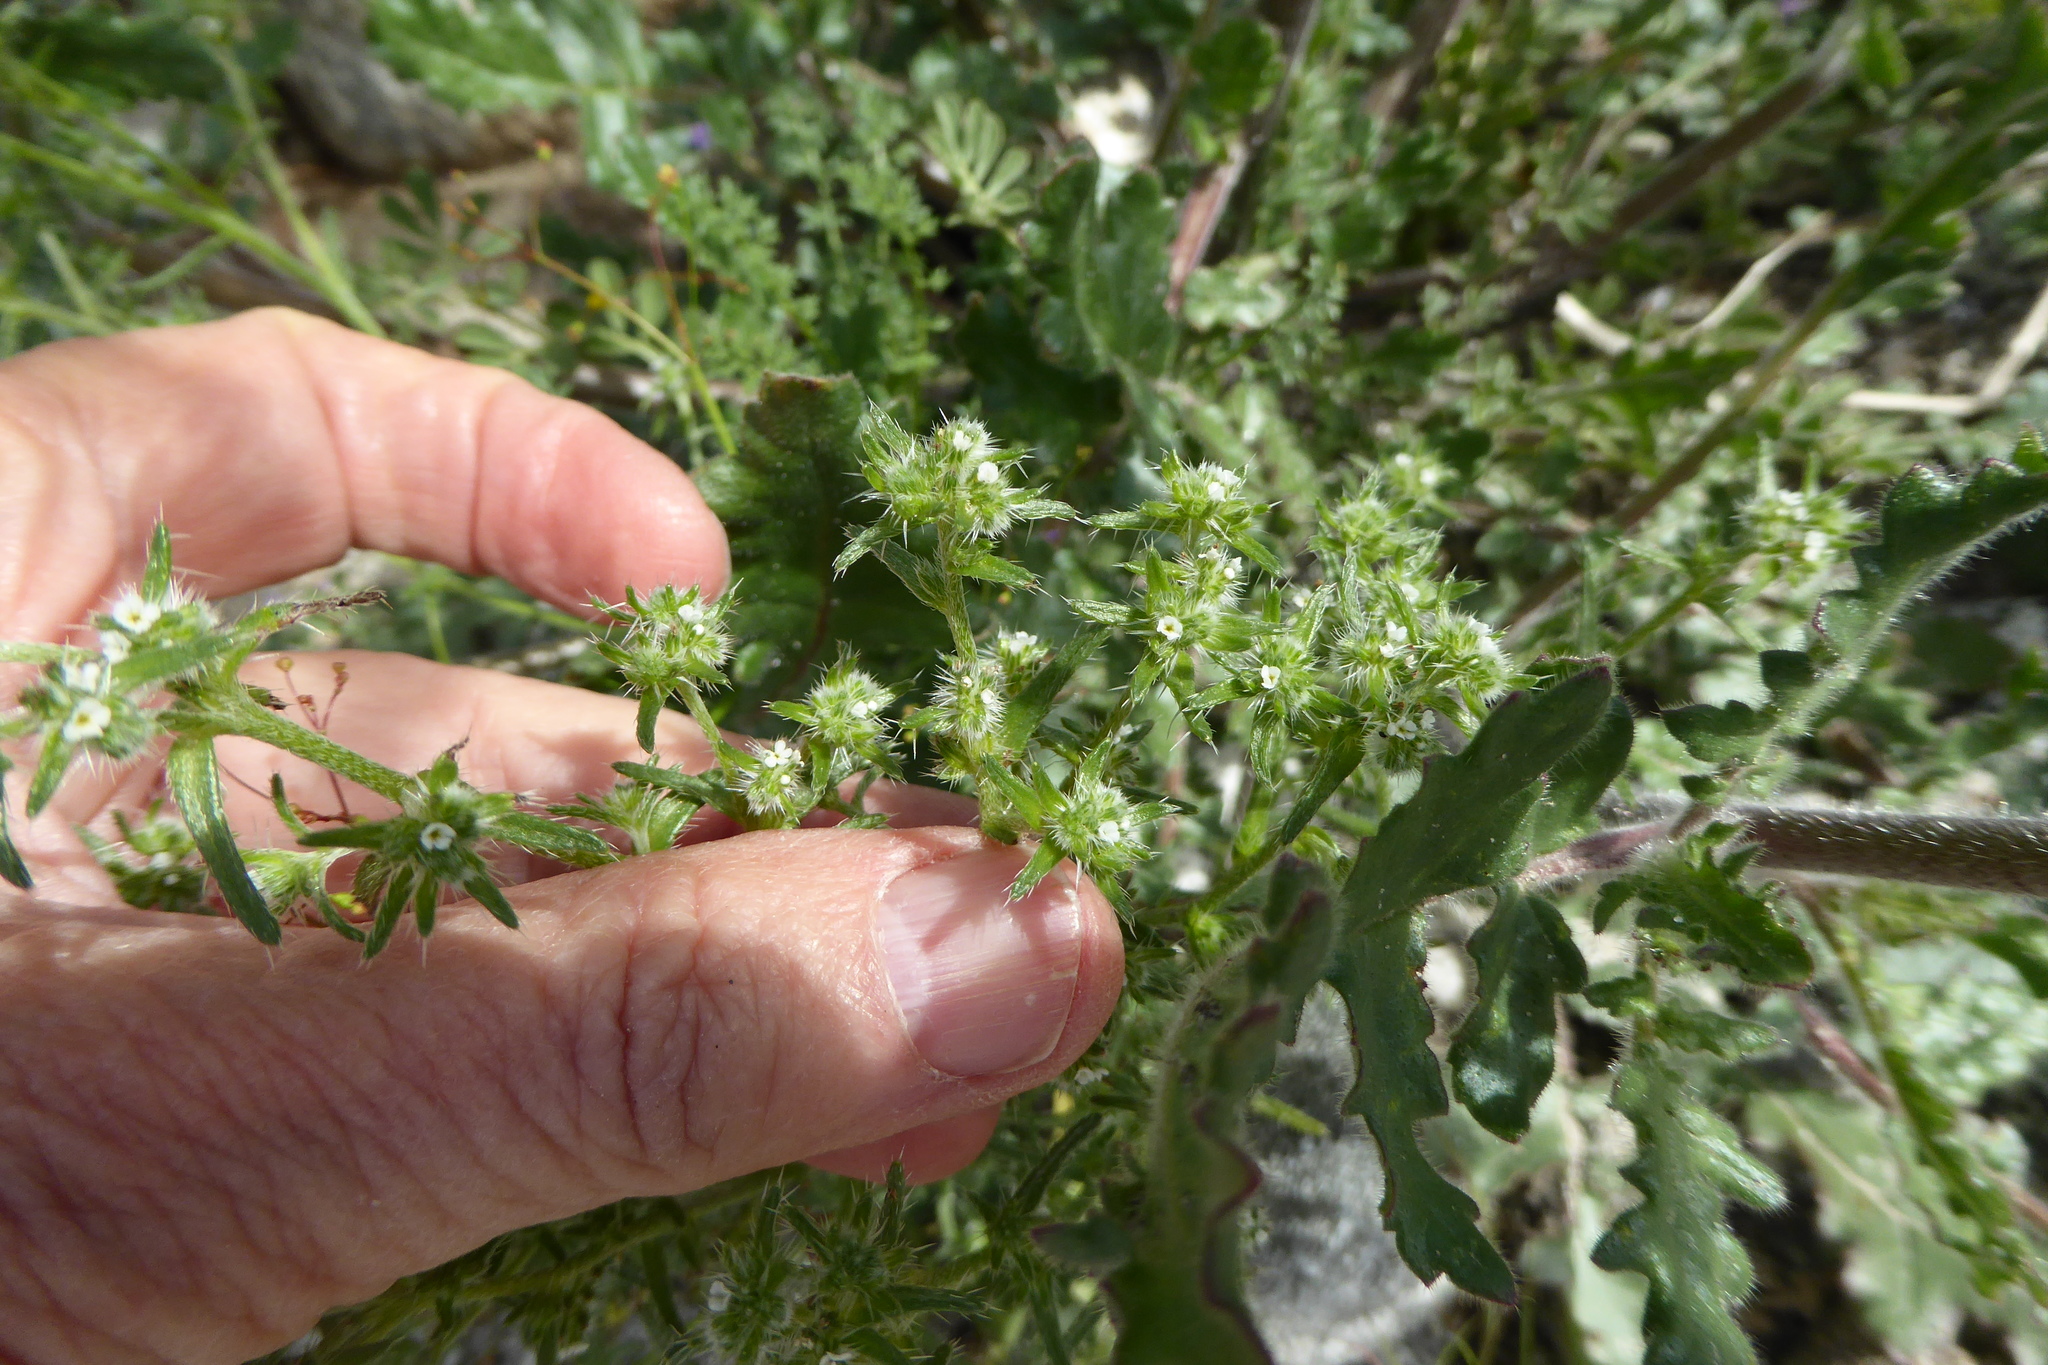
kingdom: Plantae
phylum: Tracheophyta
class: Magnoliopsida
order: Boraginales
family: Boraginaceae
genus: Cryptantha
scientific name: Cryptantha maritima
